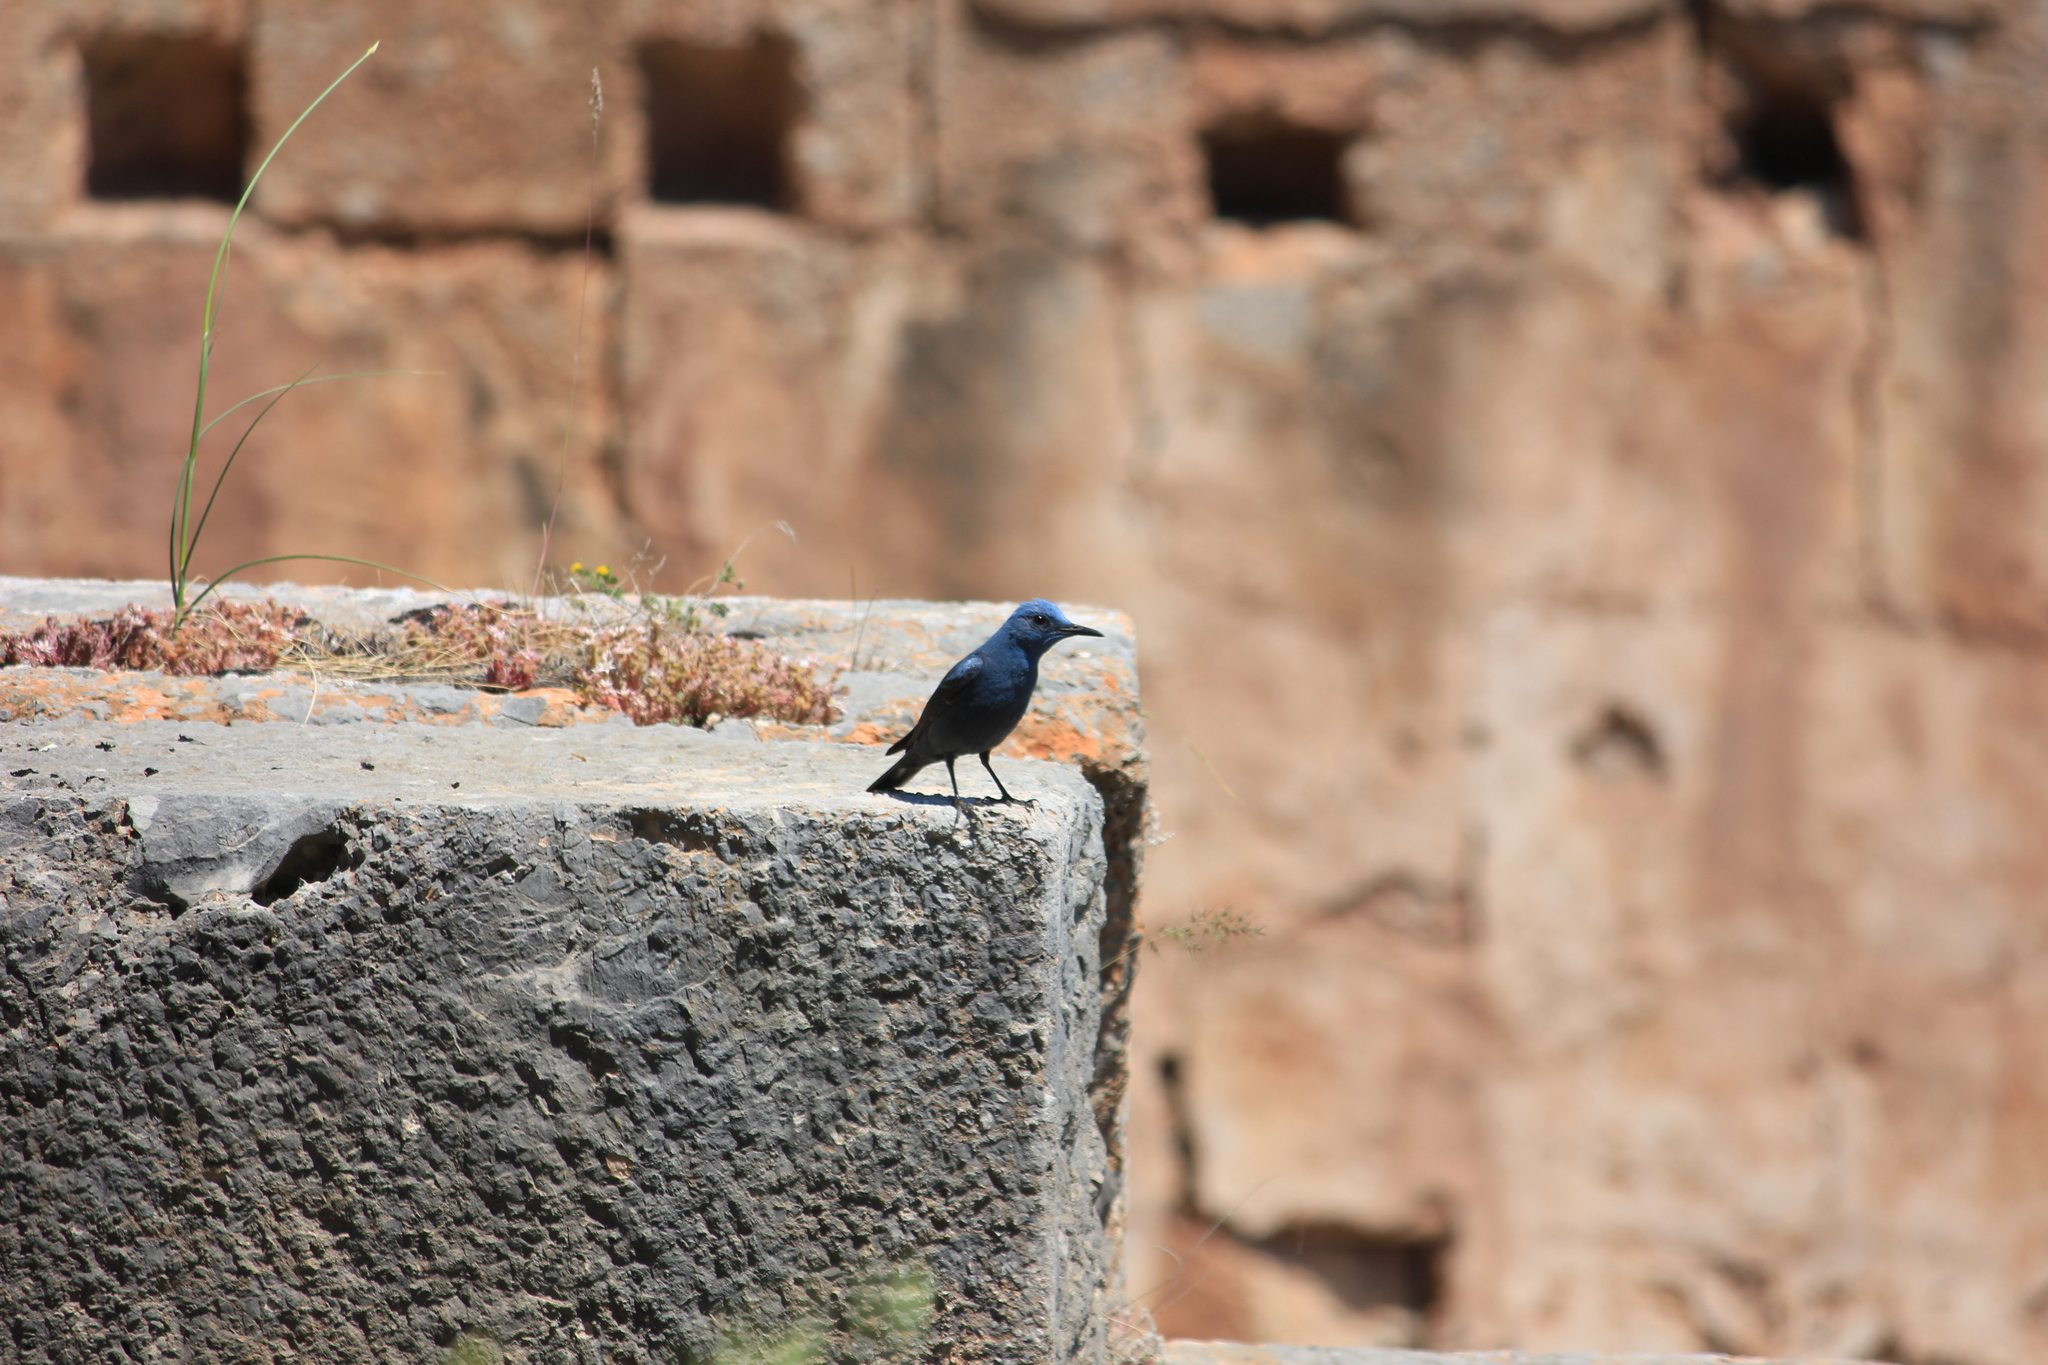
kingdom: Animalia
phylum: Chordata
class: Aves
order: Passeriformes
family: Muscicapidae
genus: Monticola
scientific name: Monticola solitarius
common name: Blue rock thrush
